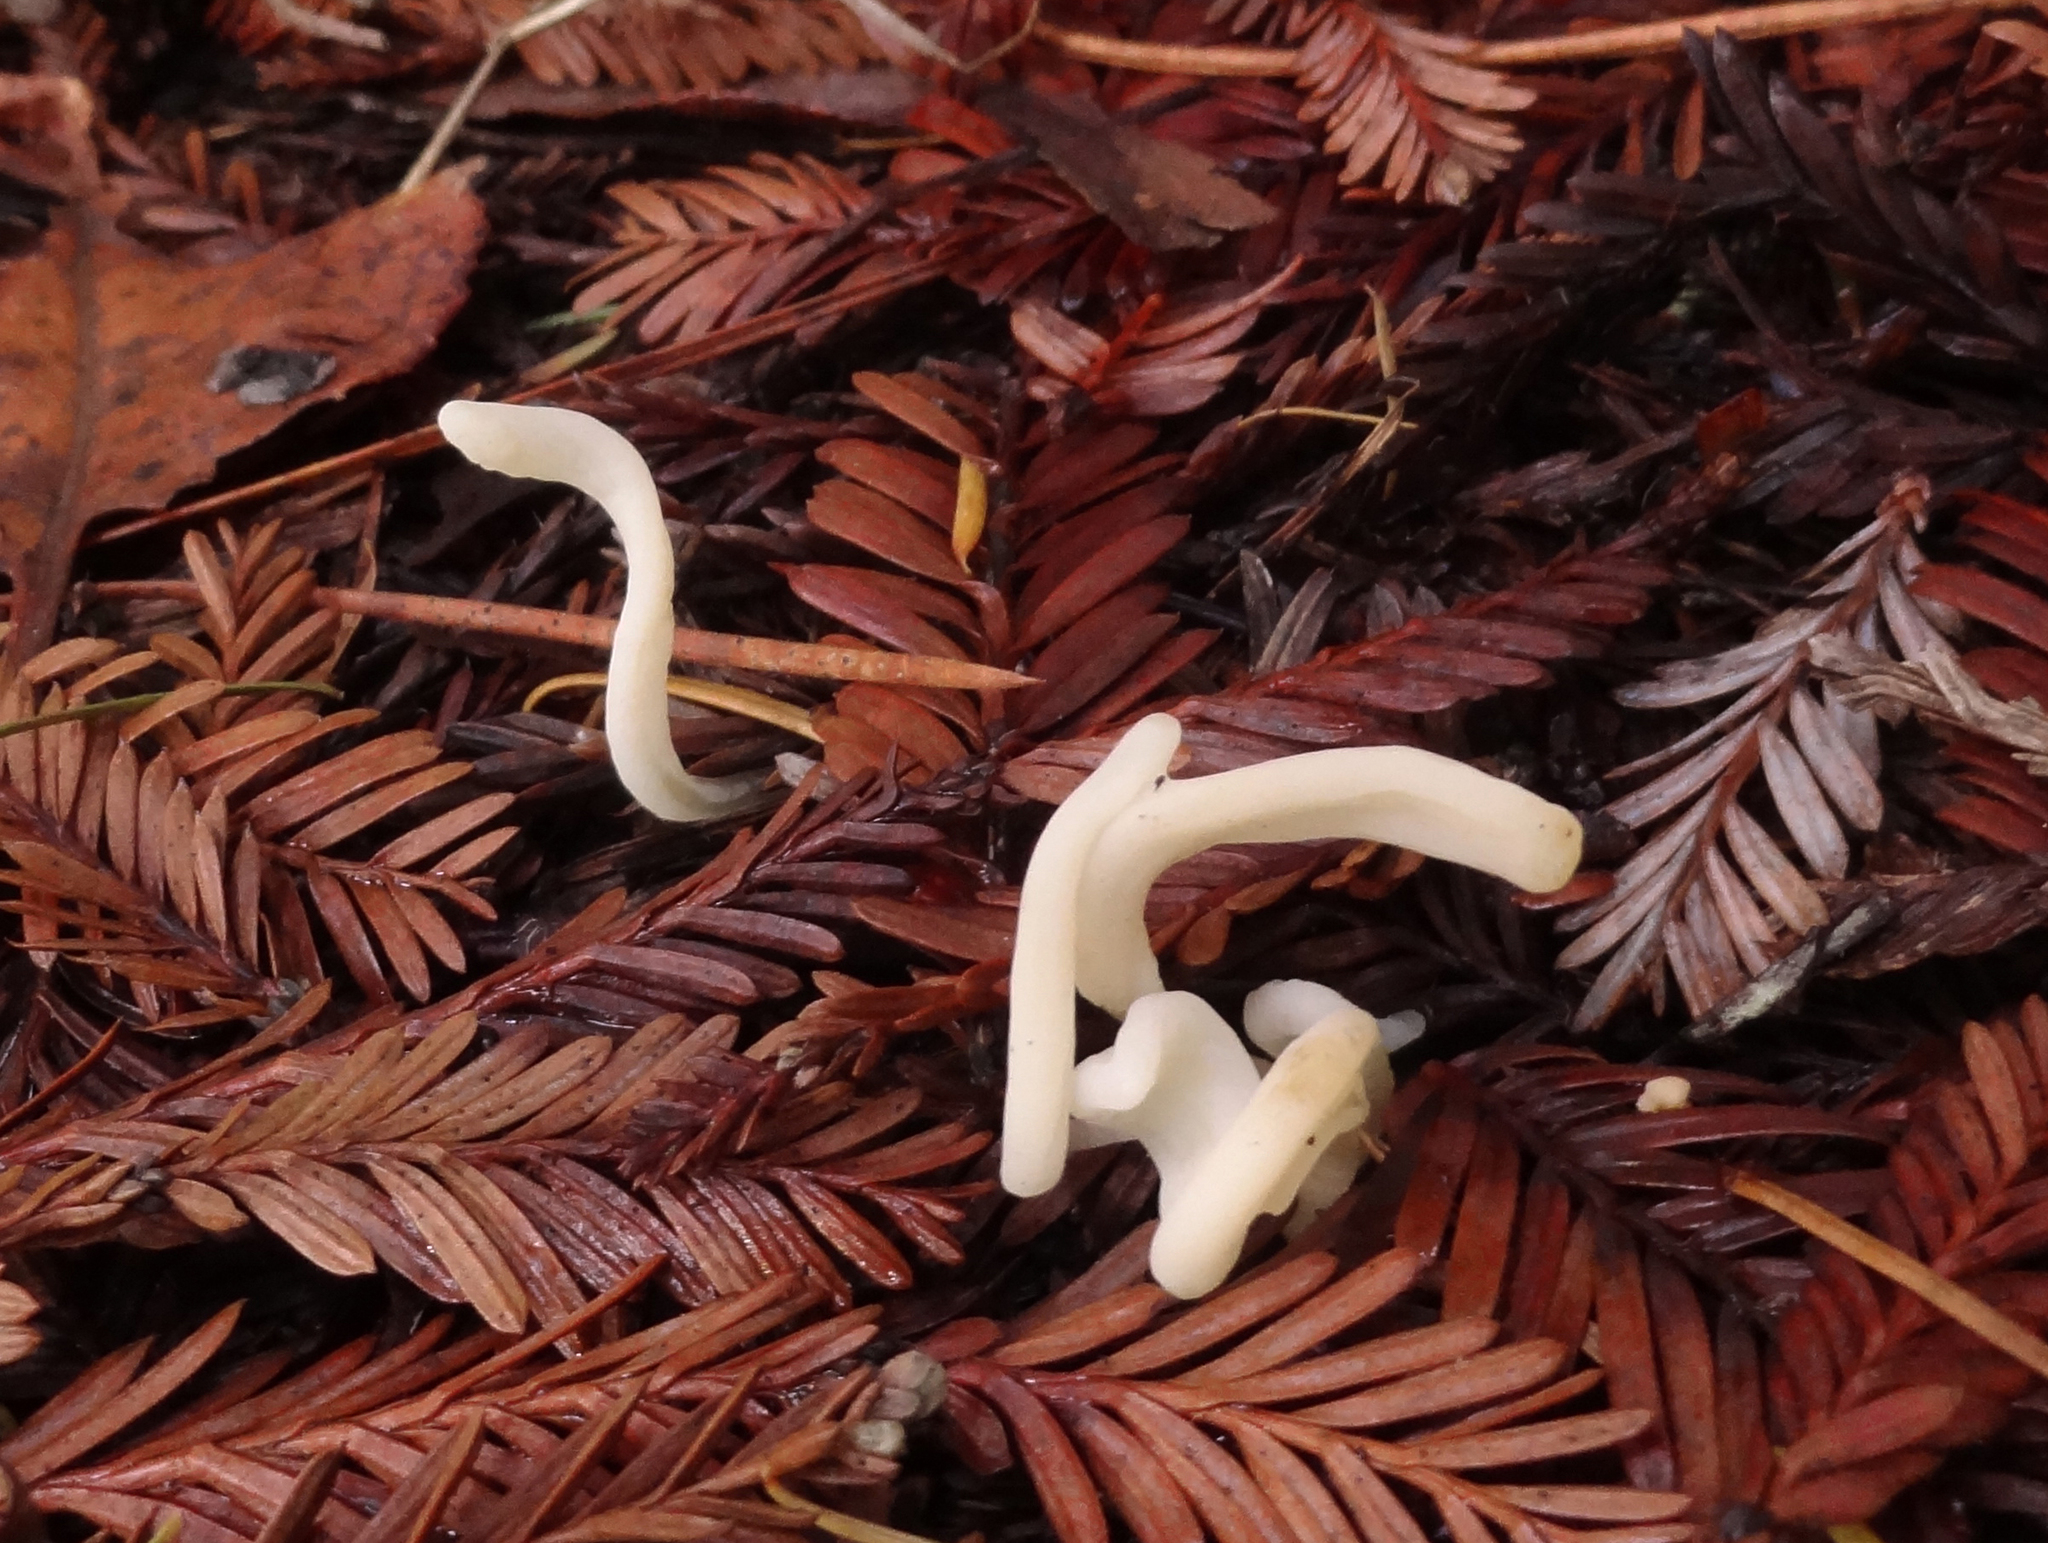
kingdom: Fungi
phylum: Basidiomycota
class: Agaricomycetes
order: Agaricales
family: Clavariaceae
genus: Clavaria
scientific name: Clavaria fragilis
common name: White spindles
